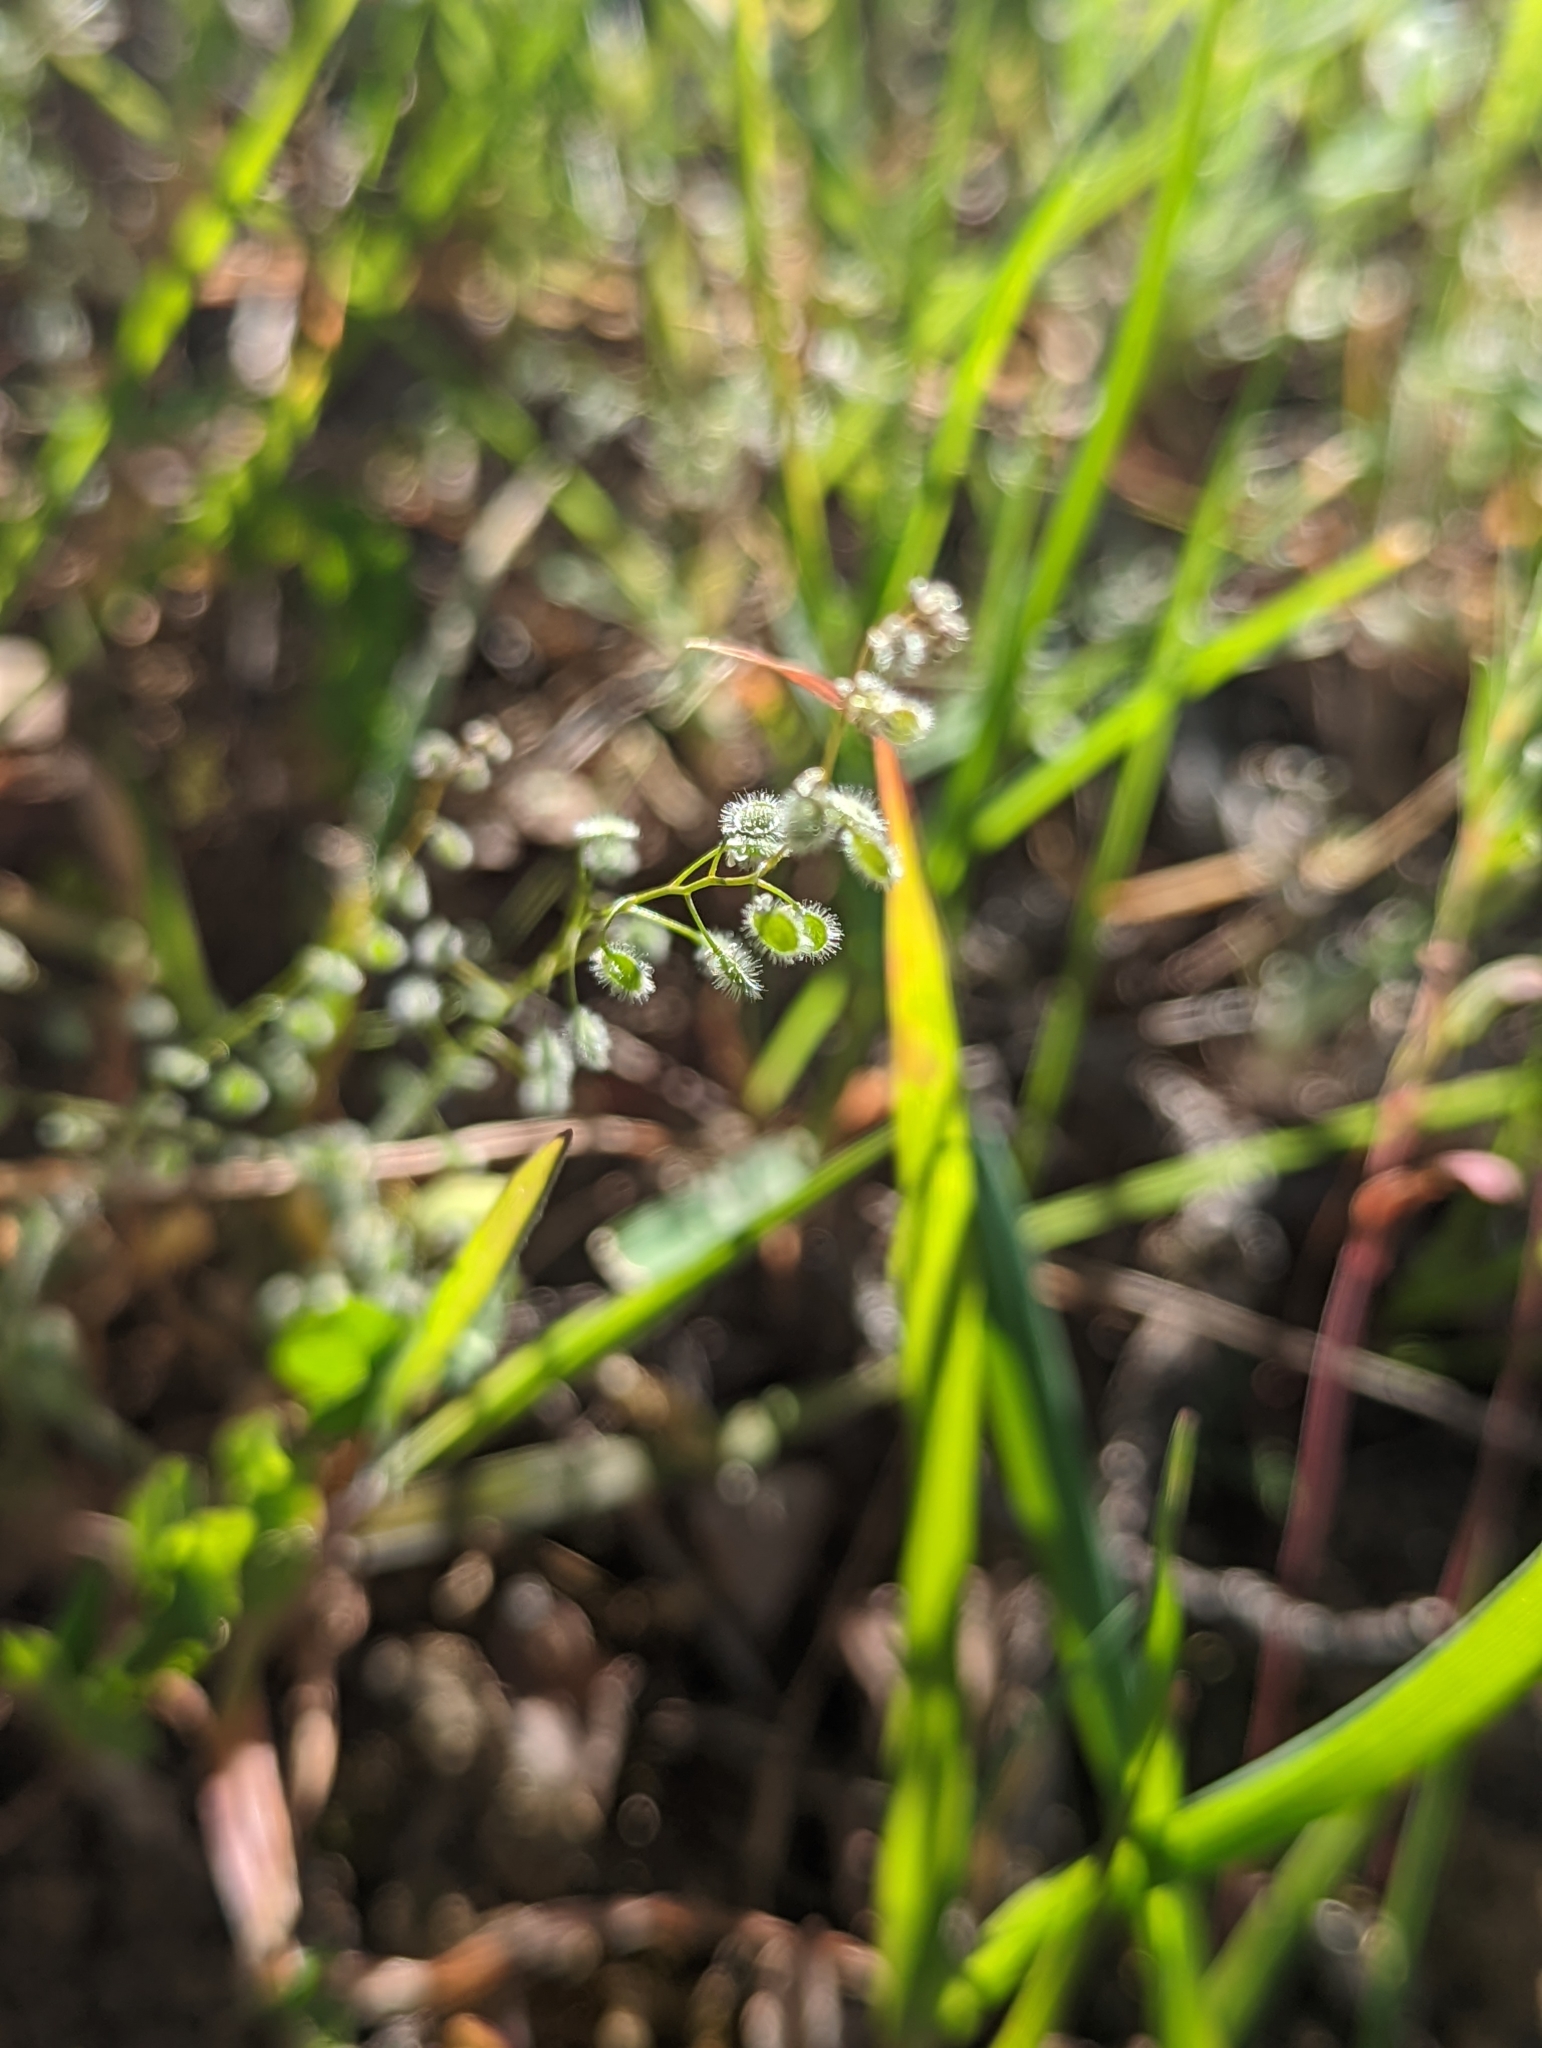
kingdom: Plantae
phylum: Tracheophyta
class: Magnoliopsida
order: Brassicales
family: Brassicaceae
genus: Athysanus
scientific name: Athysanus pusillus
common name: Common sandweed
